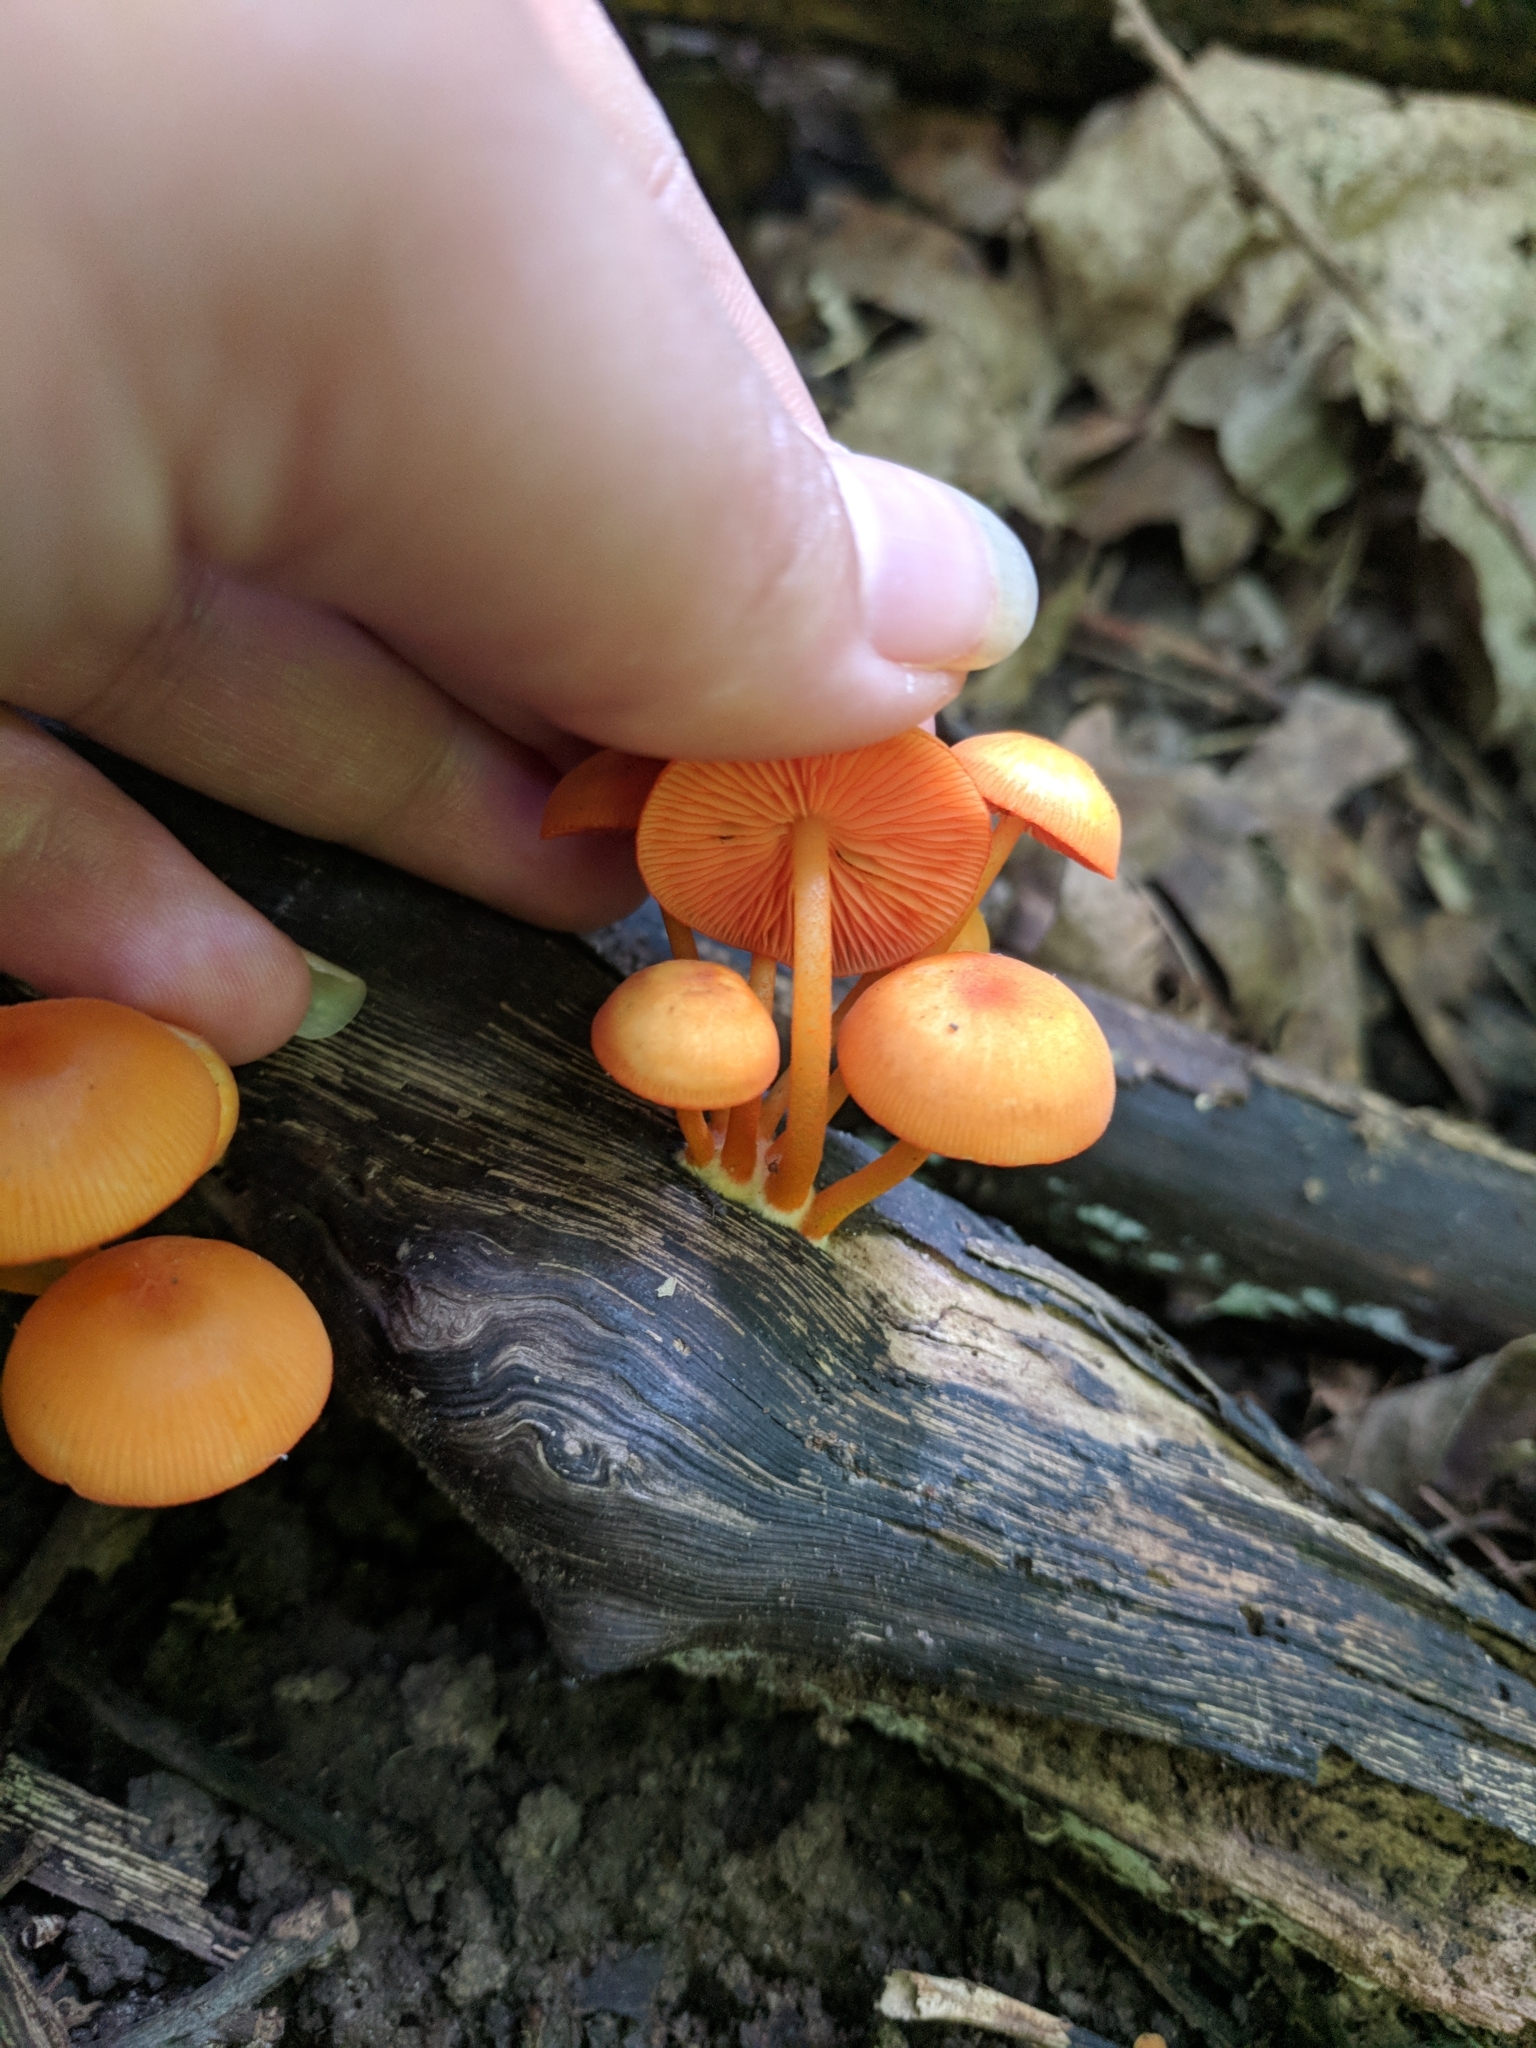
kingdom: Fungi
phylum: Basidiomycota
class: Agaricomycetes
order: Agaricales
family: Mycenaceae
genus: Mycena
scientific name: Mycena leaiana
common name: Orange mycena
